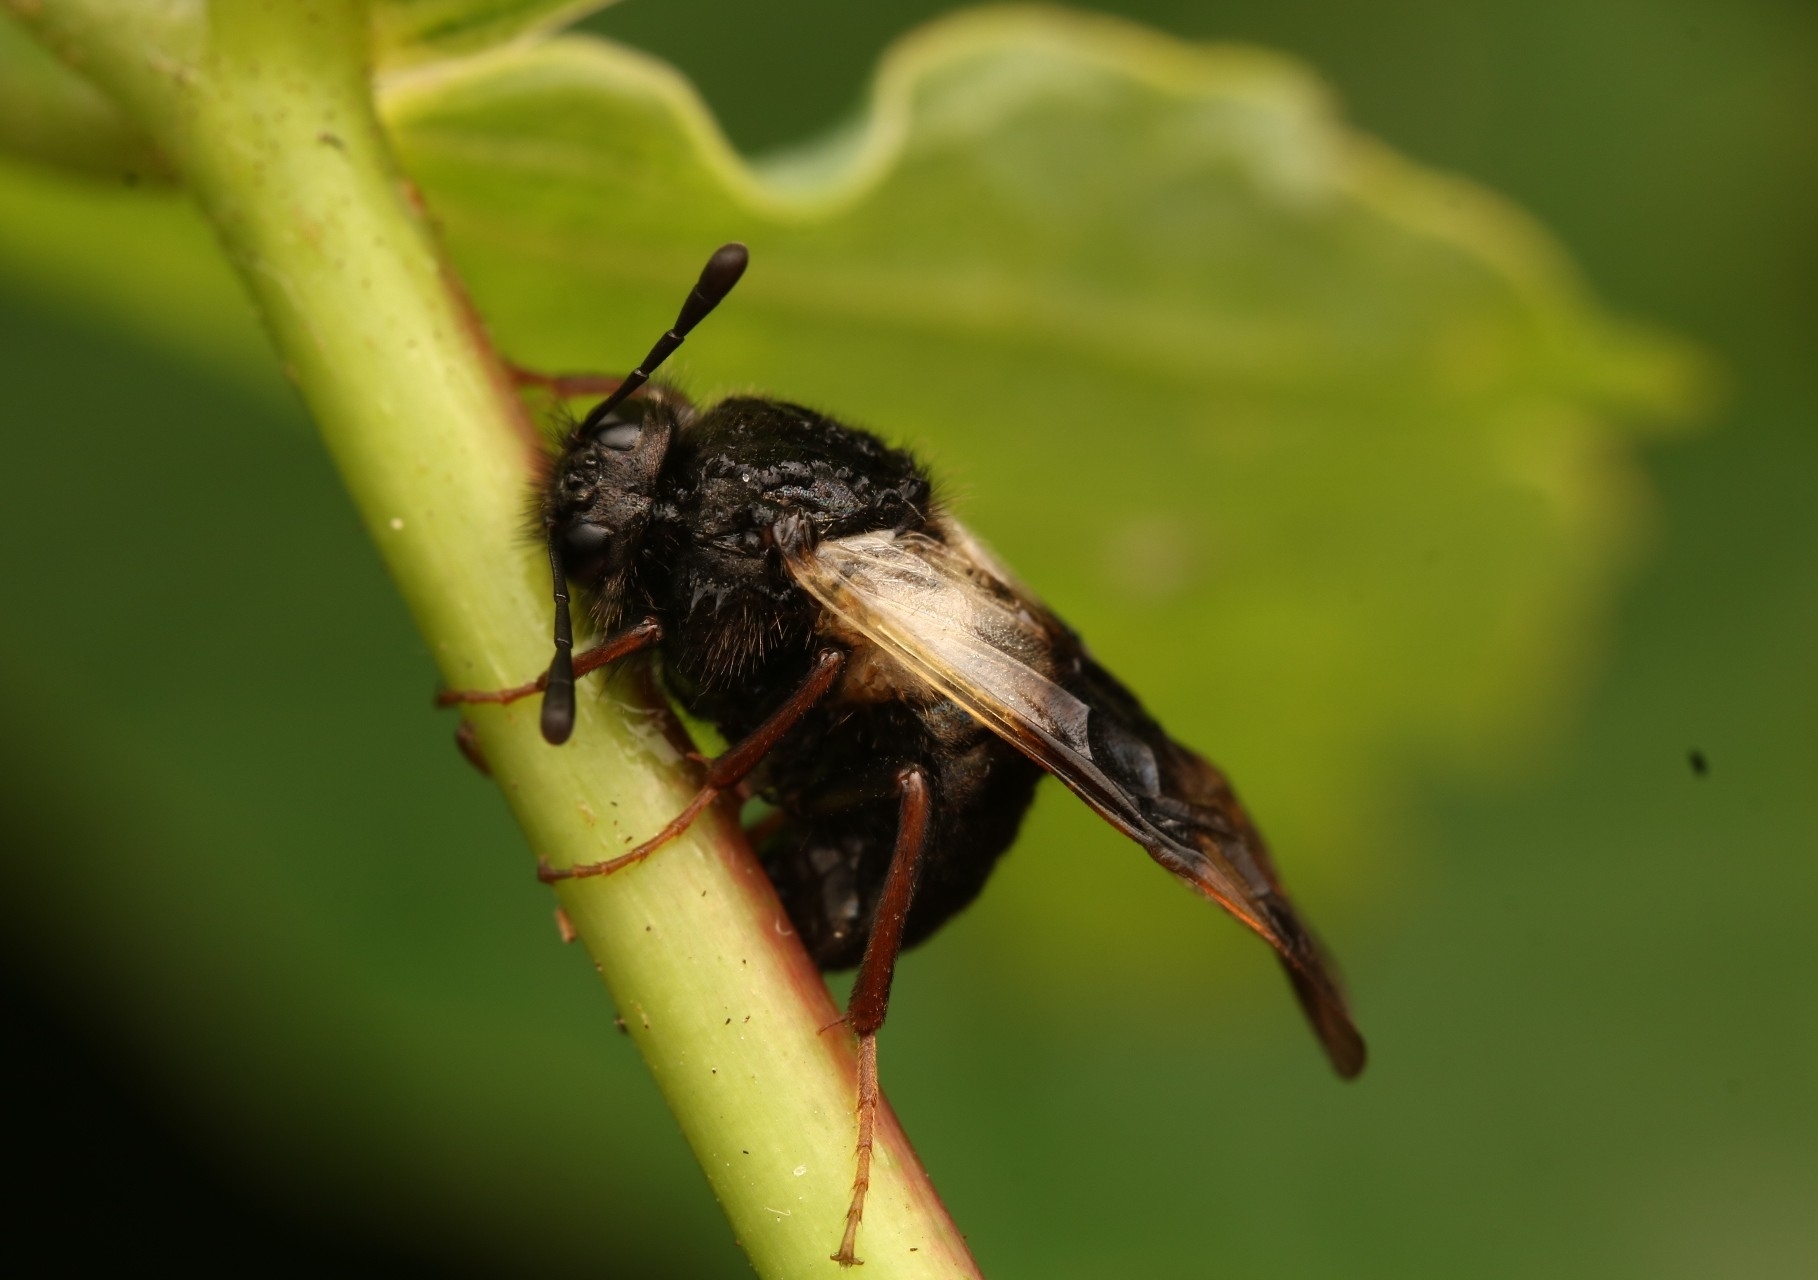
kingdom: Animalia
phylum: Arthropoda
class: Insecta
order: Hymenoptera
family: Cimbicidae
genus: Abia
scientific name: Abia fasciata
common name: Banded honeysuckle sawfly
